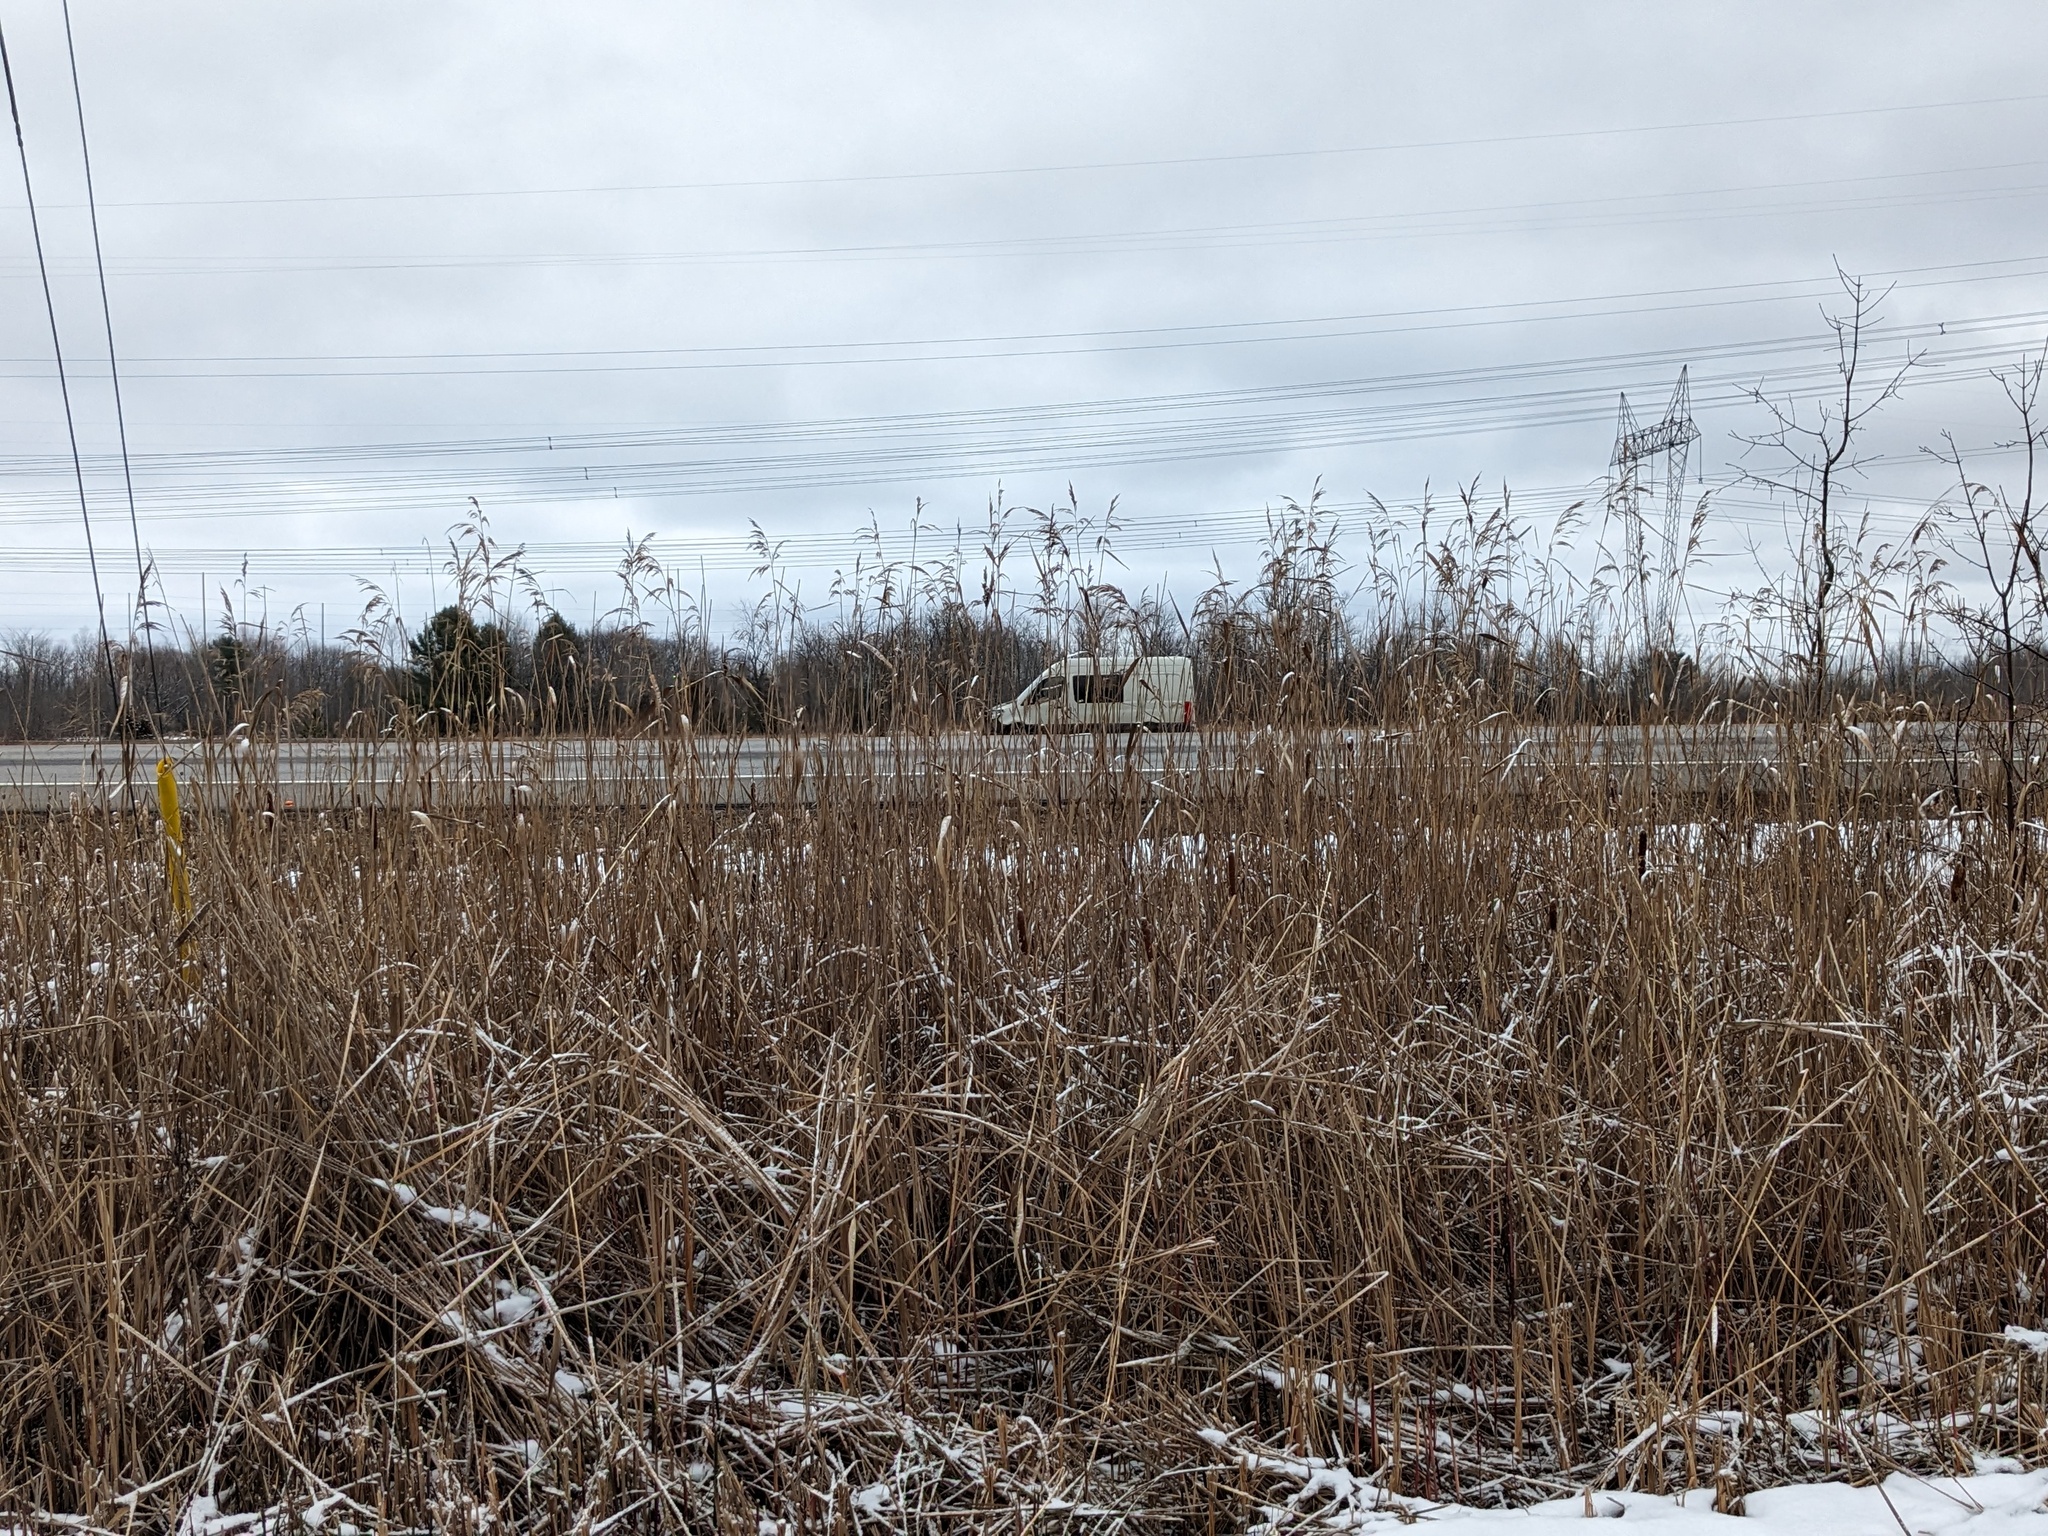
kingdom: Plantae
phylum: Tracheophyta
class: Liliopsida
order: Poales
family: Poaceae
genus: Phragmites
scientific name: Phragmites australis
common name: Common reed
